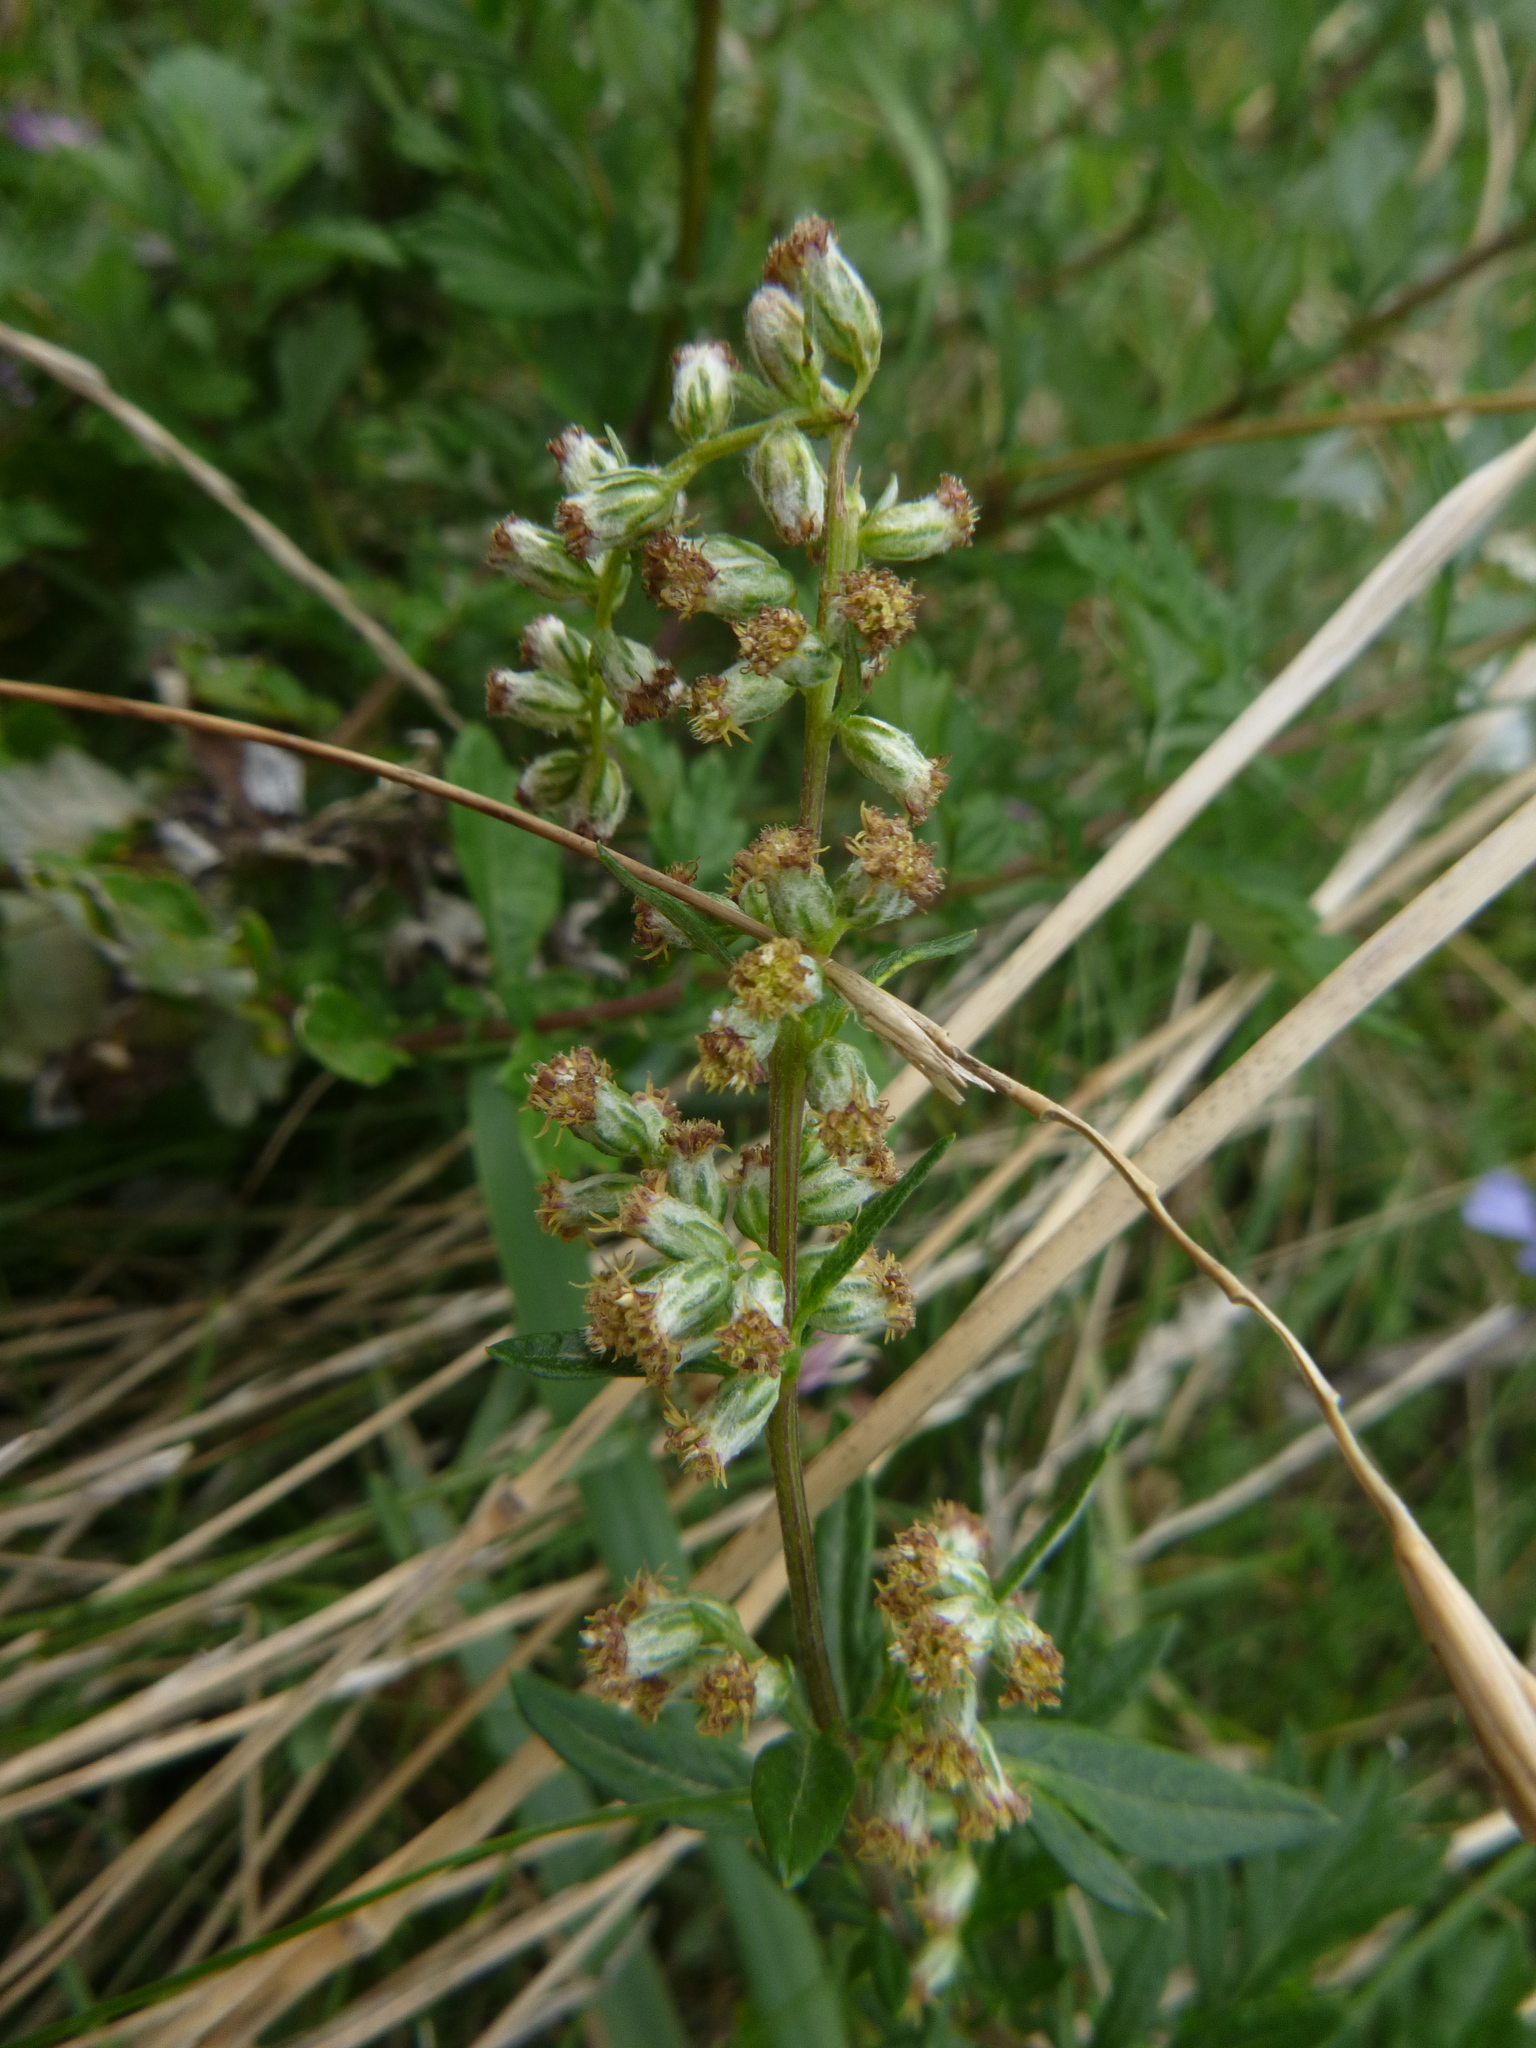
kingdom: Plantae
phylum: Tracheophyta
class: Magnoliopsida
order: Asterales
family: Asteraceae
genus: Artemisia
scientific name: Artemisia vulgaris
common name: Mugwort
